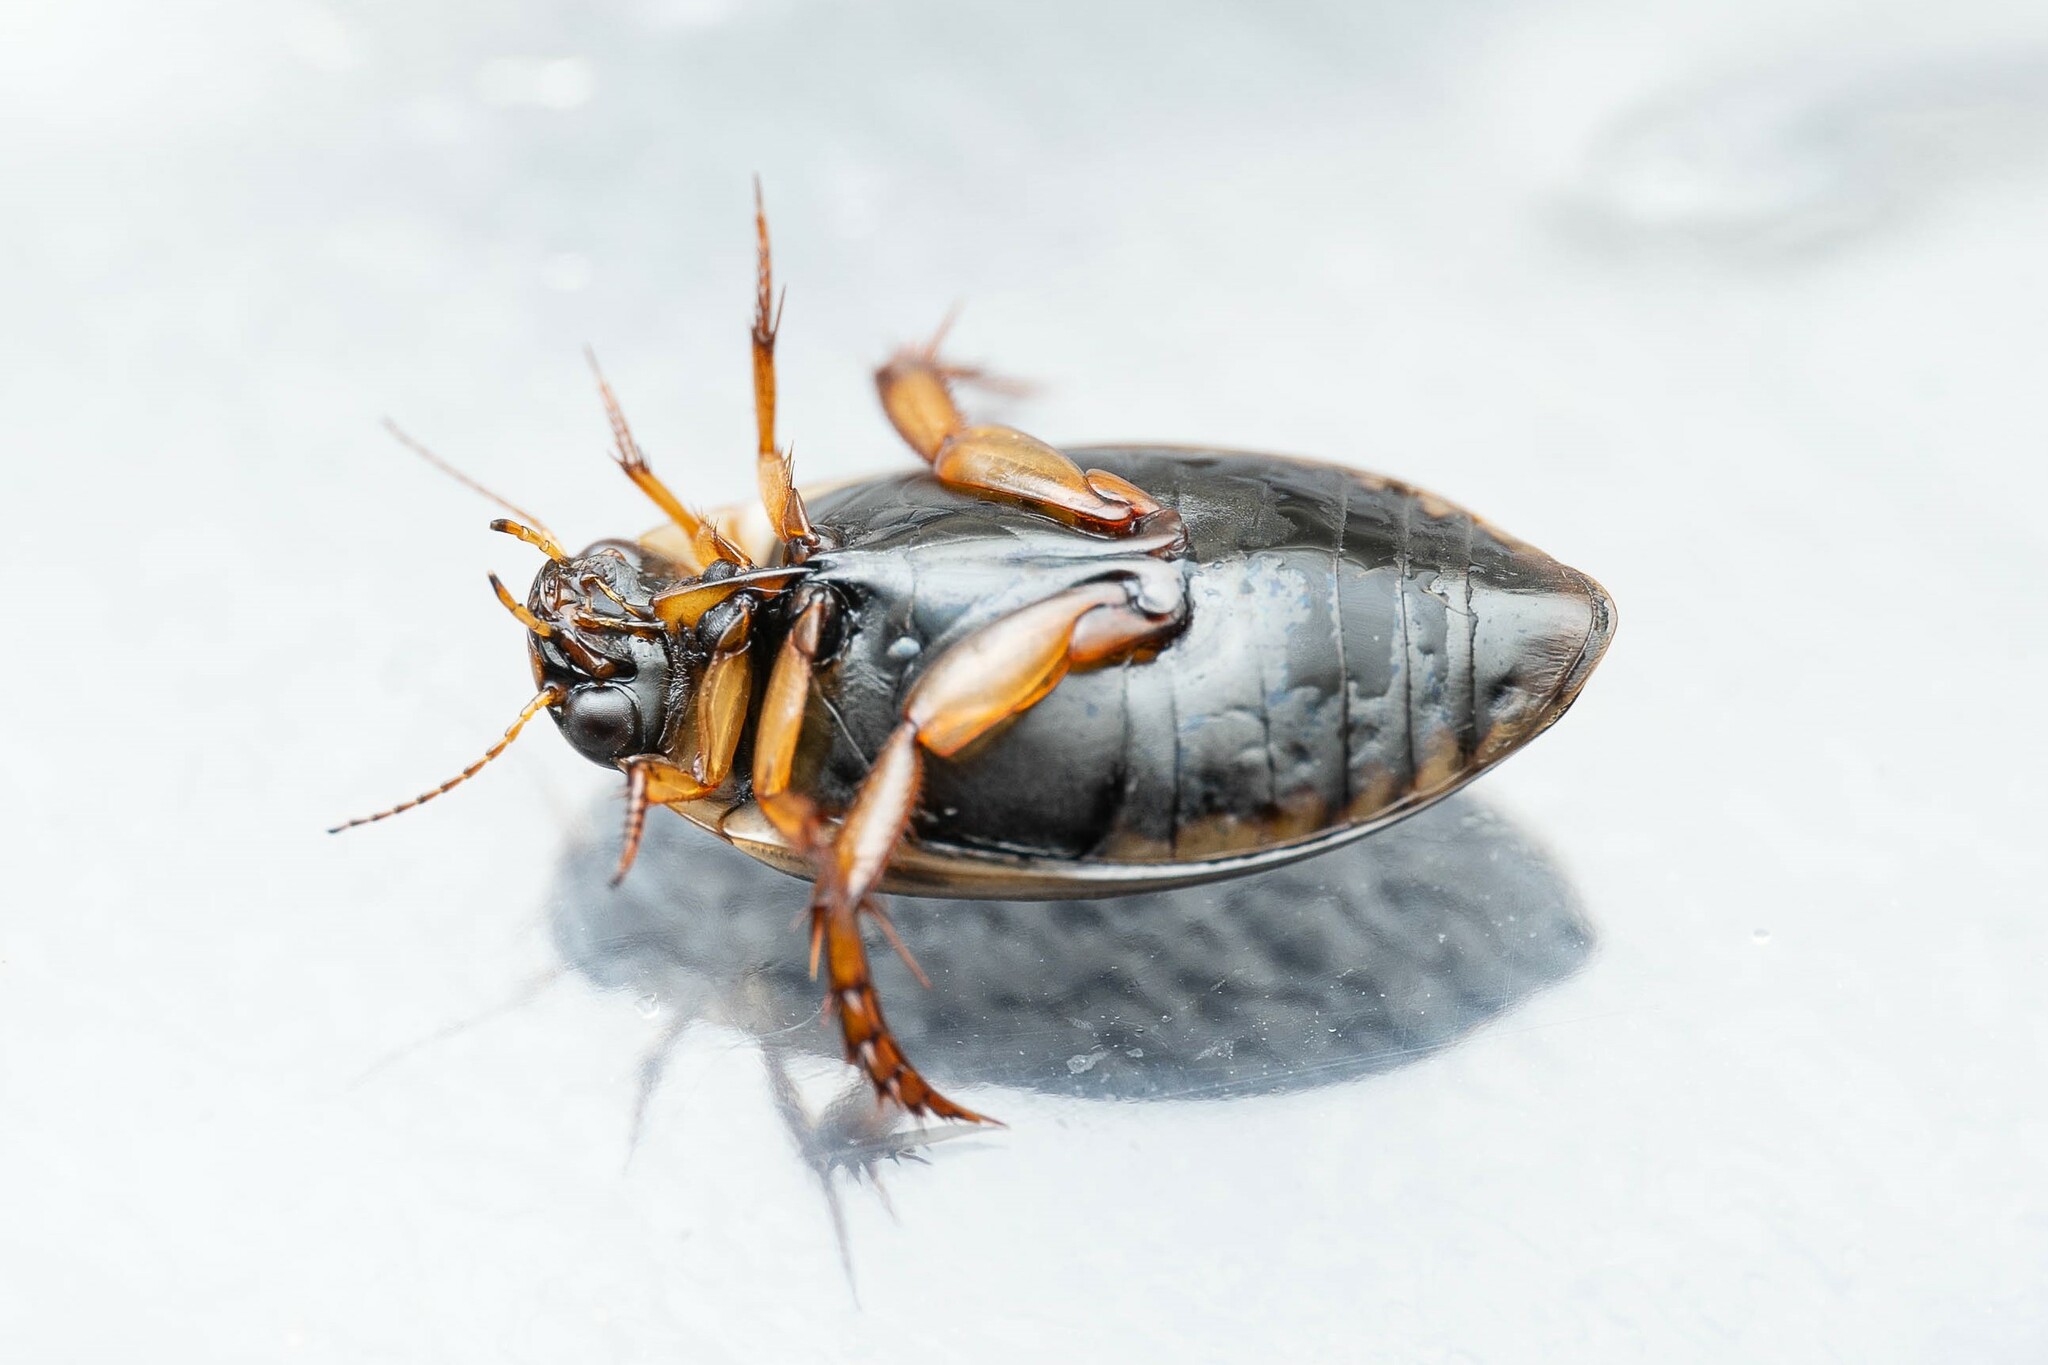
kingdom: Animalia
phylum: Arthropoda
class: Insecta
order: Coleoptera
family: Dytiscidae
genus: Rhantus
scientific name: Rhantus gutticollis
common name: Predaceous diving beetle
